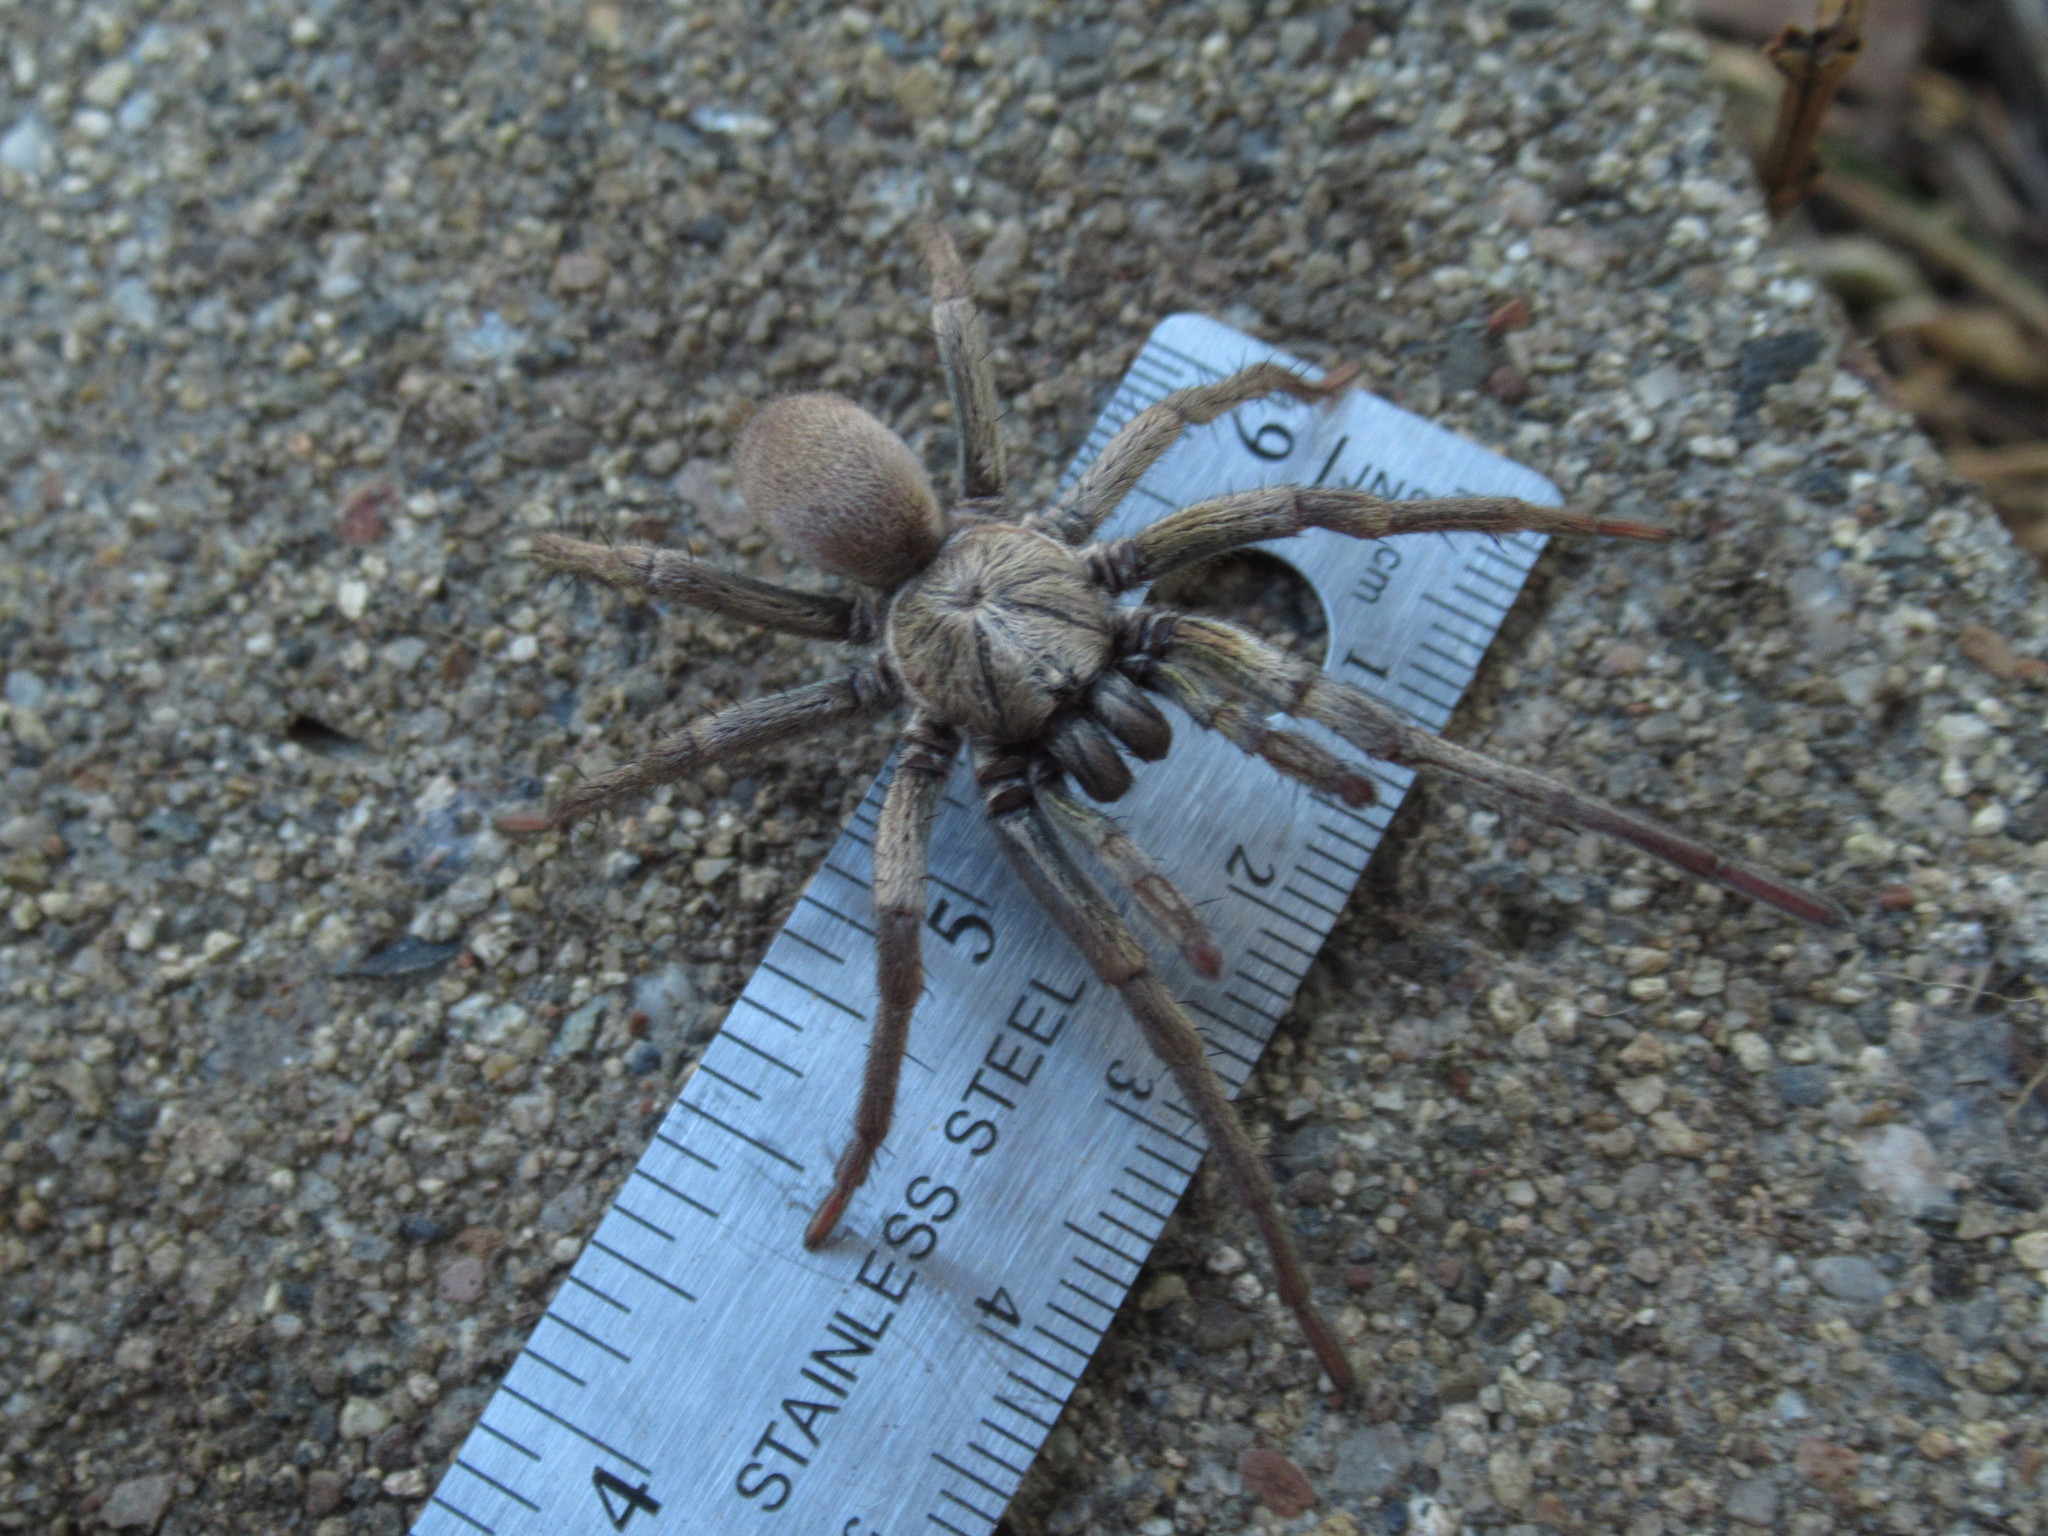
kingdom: Animalia
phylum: Arthropoda
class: Arachnida
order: Araneae
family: Nemesiidae
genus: Calisoga
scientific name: Calisoga longitarsis
